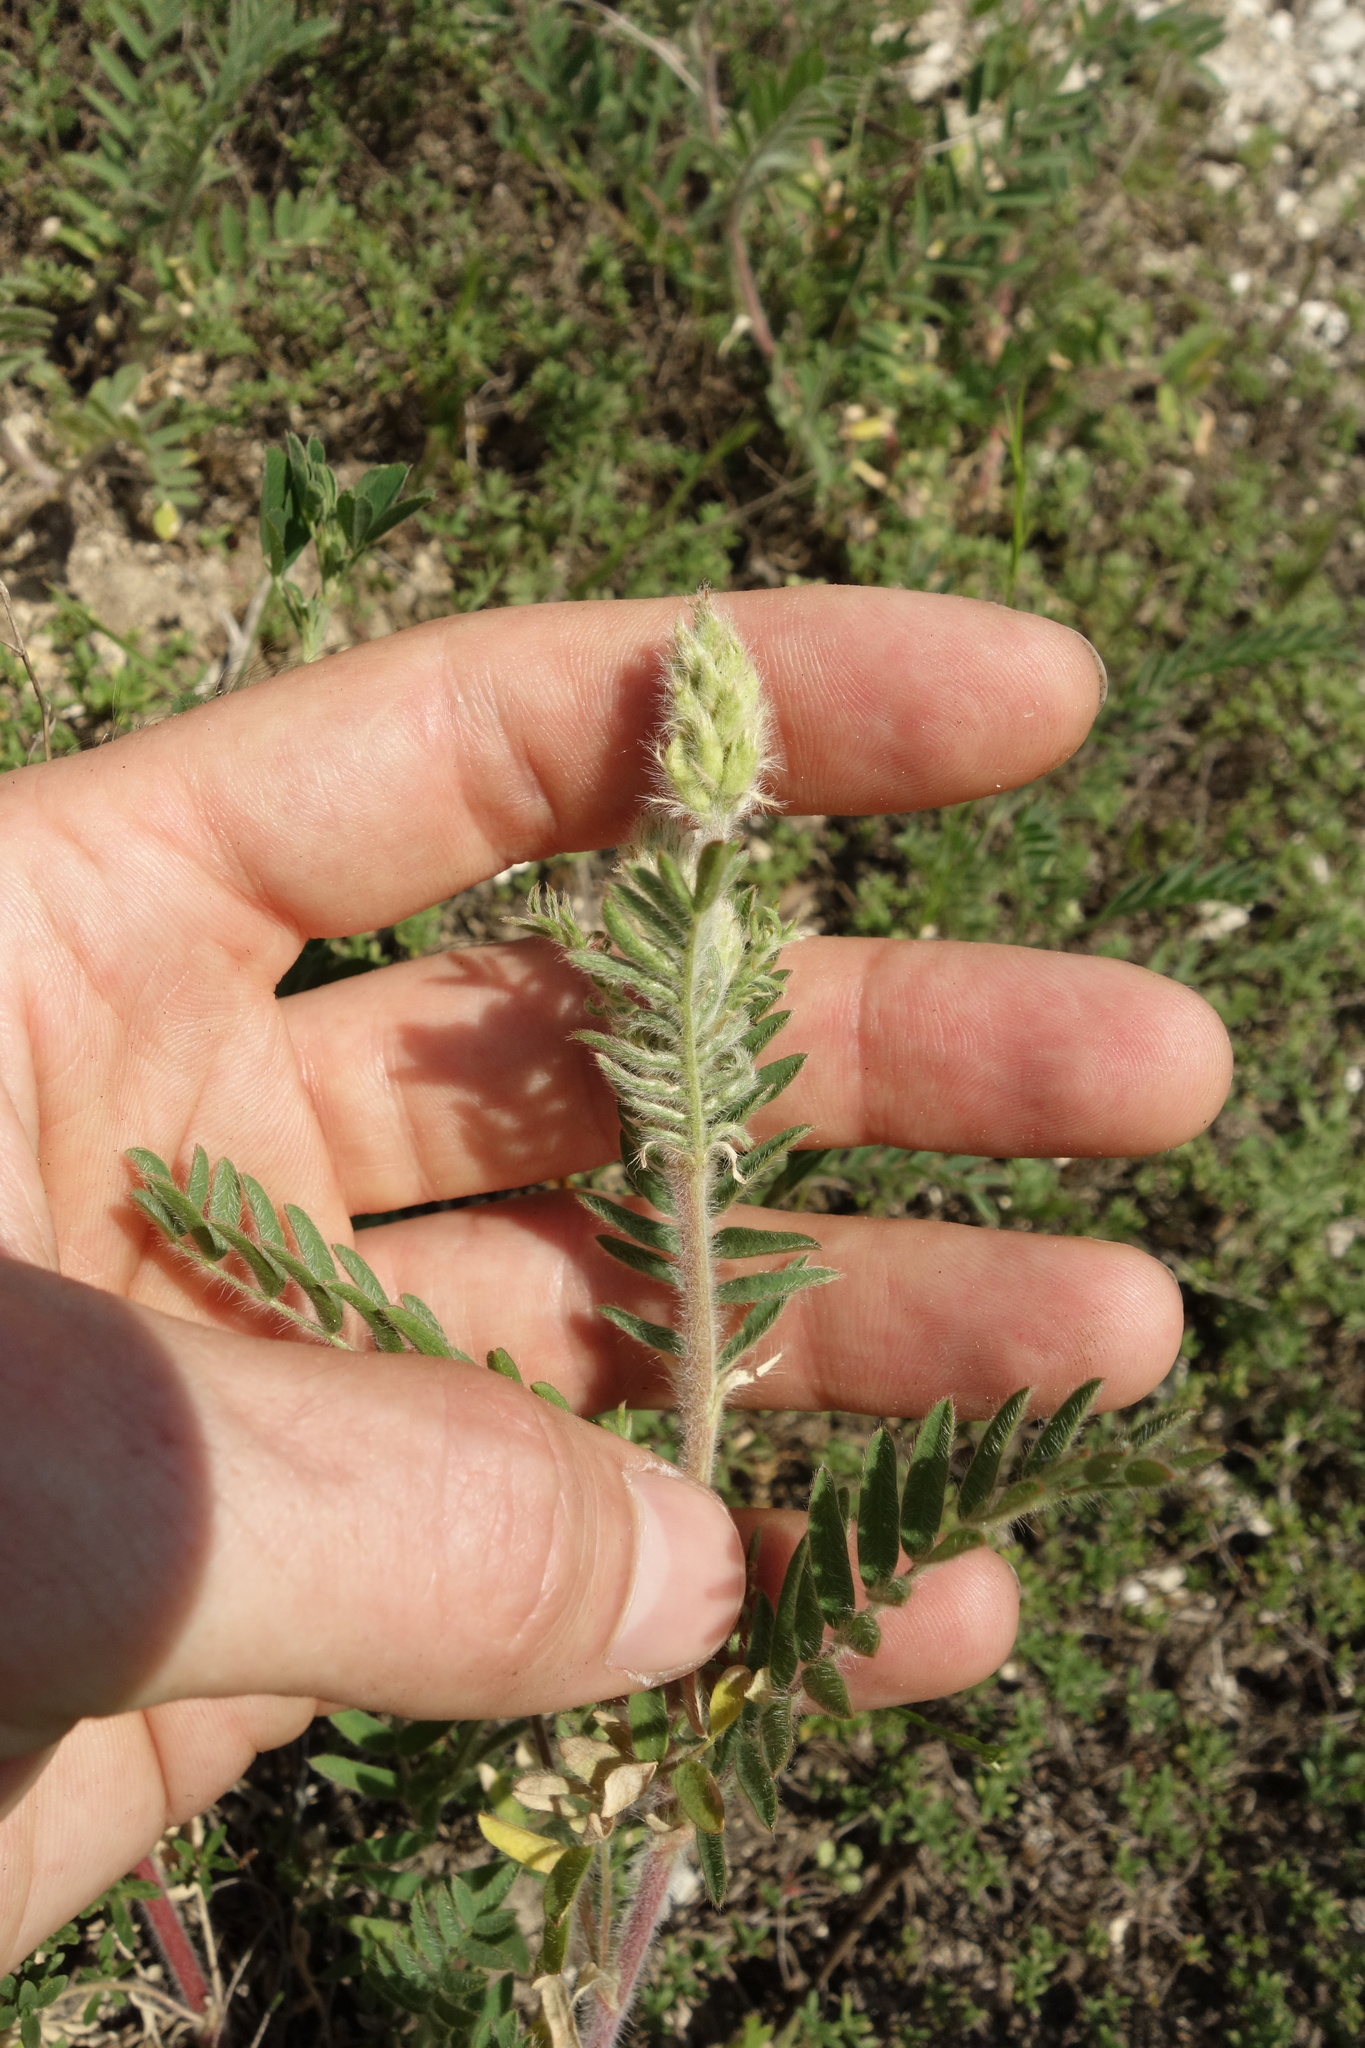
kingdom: Plantae
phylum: Tracheophyta
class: Magnoliopsida
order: Fabales
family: Fabaceae
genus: Oxytropis
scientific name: Oxytropis pilosa
